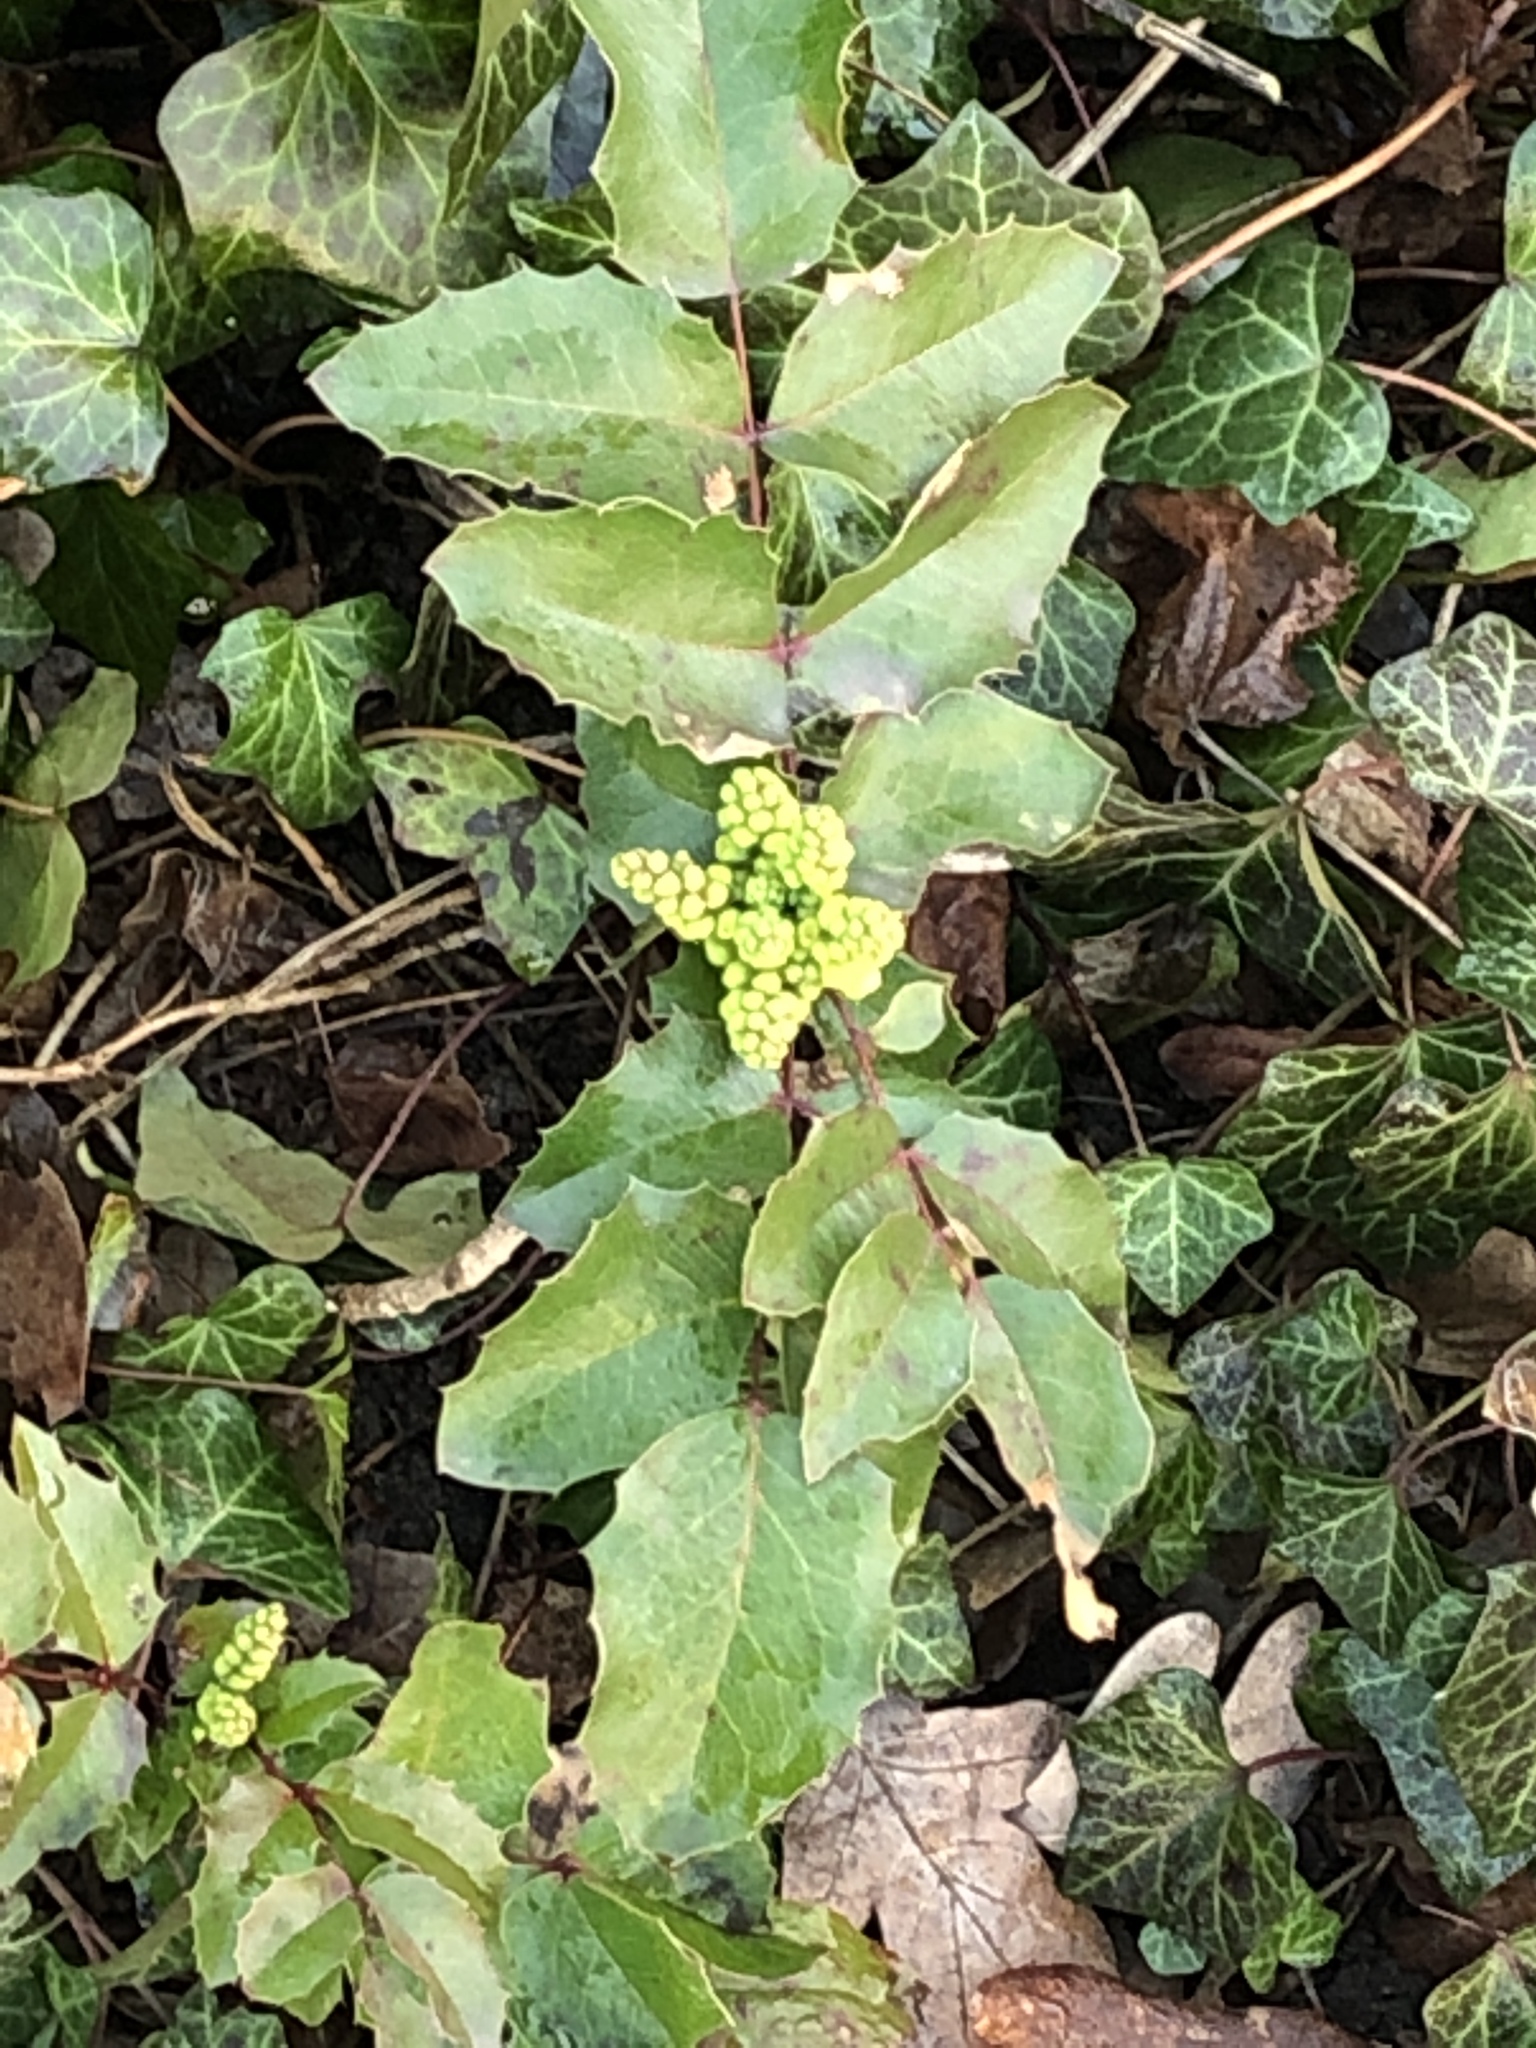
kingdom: Plantae
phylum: Tracheophyta
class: Magnoliopsida
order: Ranunculales
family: Berberidaceae
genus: Mahonia
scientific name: Mahonia aquifolium
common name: Oregon-grape
